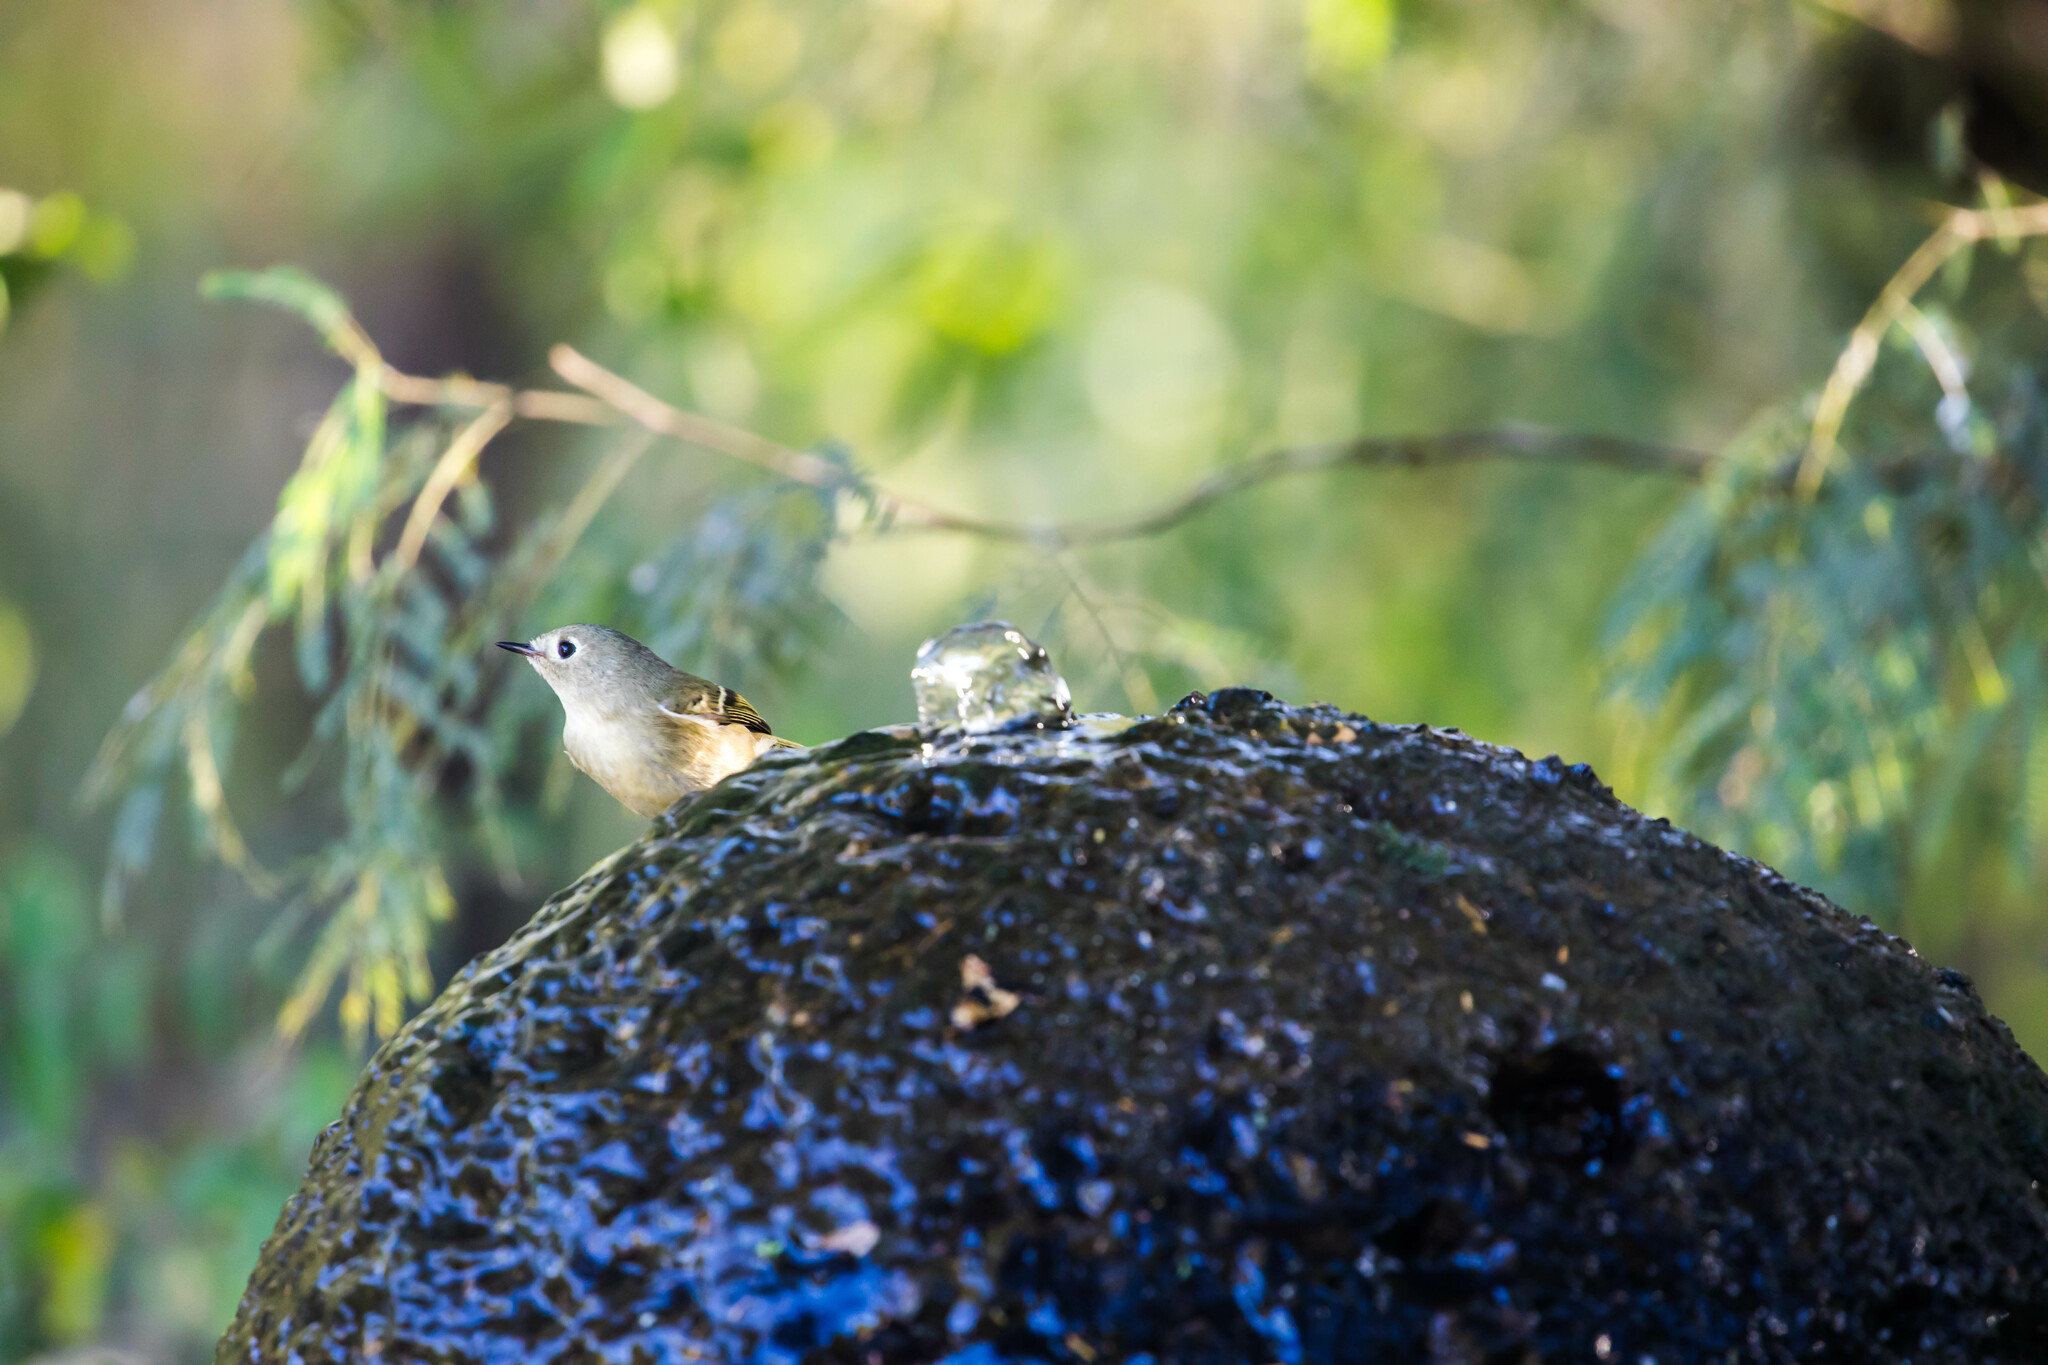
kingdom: Animalia
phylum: Chordata
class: Aves
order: Passeriformes
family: Regulidae
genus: Regulus
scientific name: Regulus calendula
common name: Ruby-crowned kinglet
